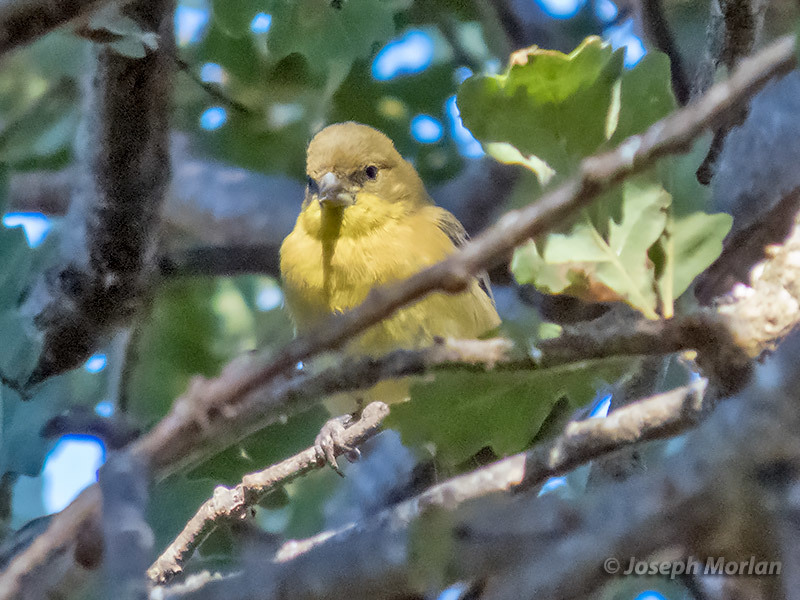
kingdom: Animalia
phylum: Chordata
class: Aves
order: Passeriformes
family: Fringillidae
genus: Spinus
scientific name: Spinus psaltria
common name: Lesser goldfinch
